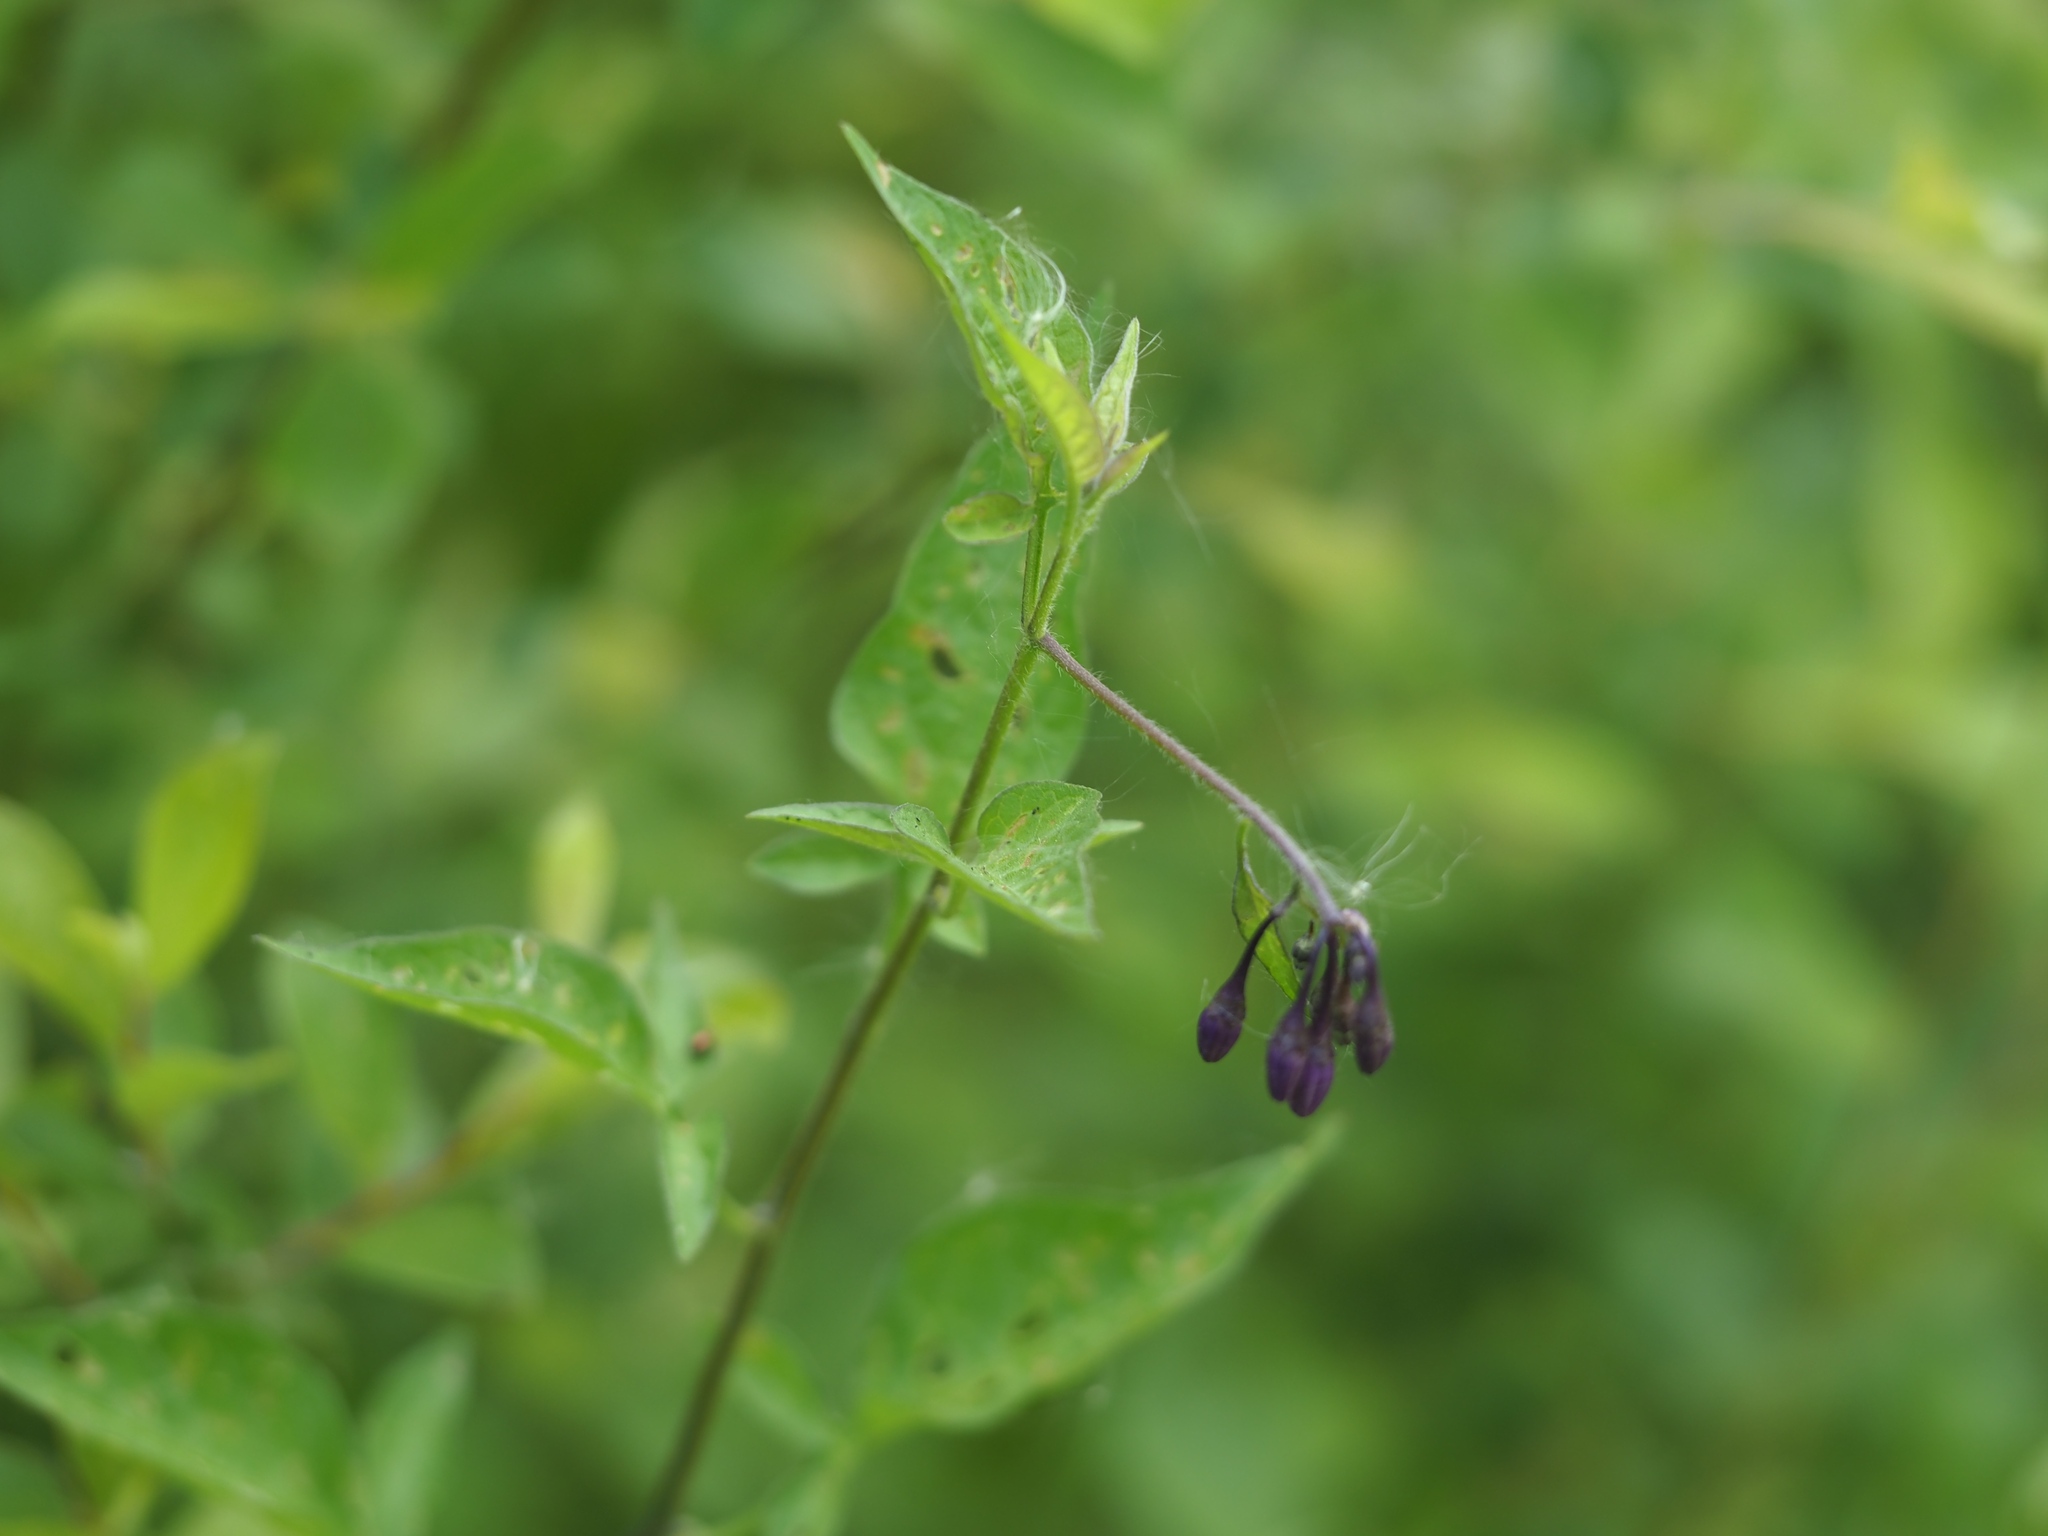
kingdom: Plantae
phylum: Tracheophyta
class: Magnoliopsida
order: Solanales
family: Solanaceae
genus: Solanum
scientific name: Solanum dulcamara
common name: Climbing nightshade
